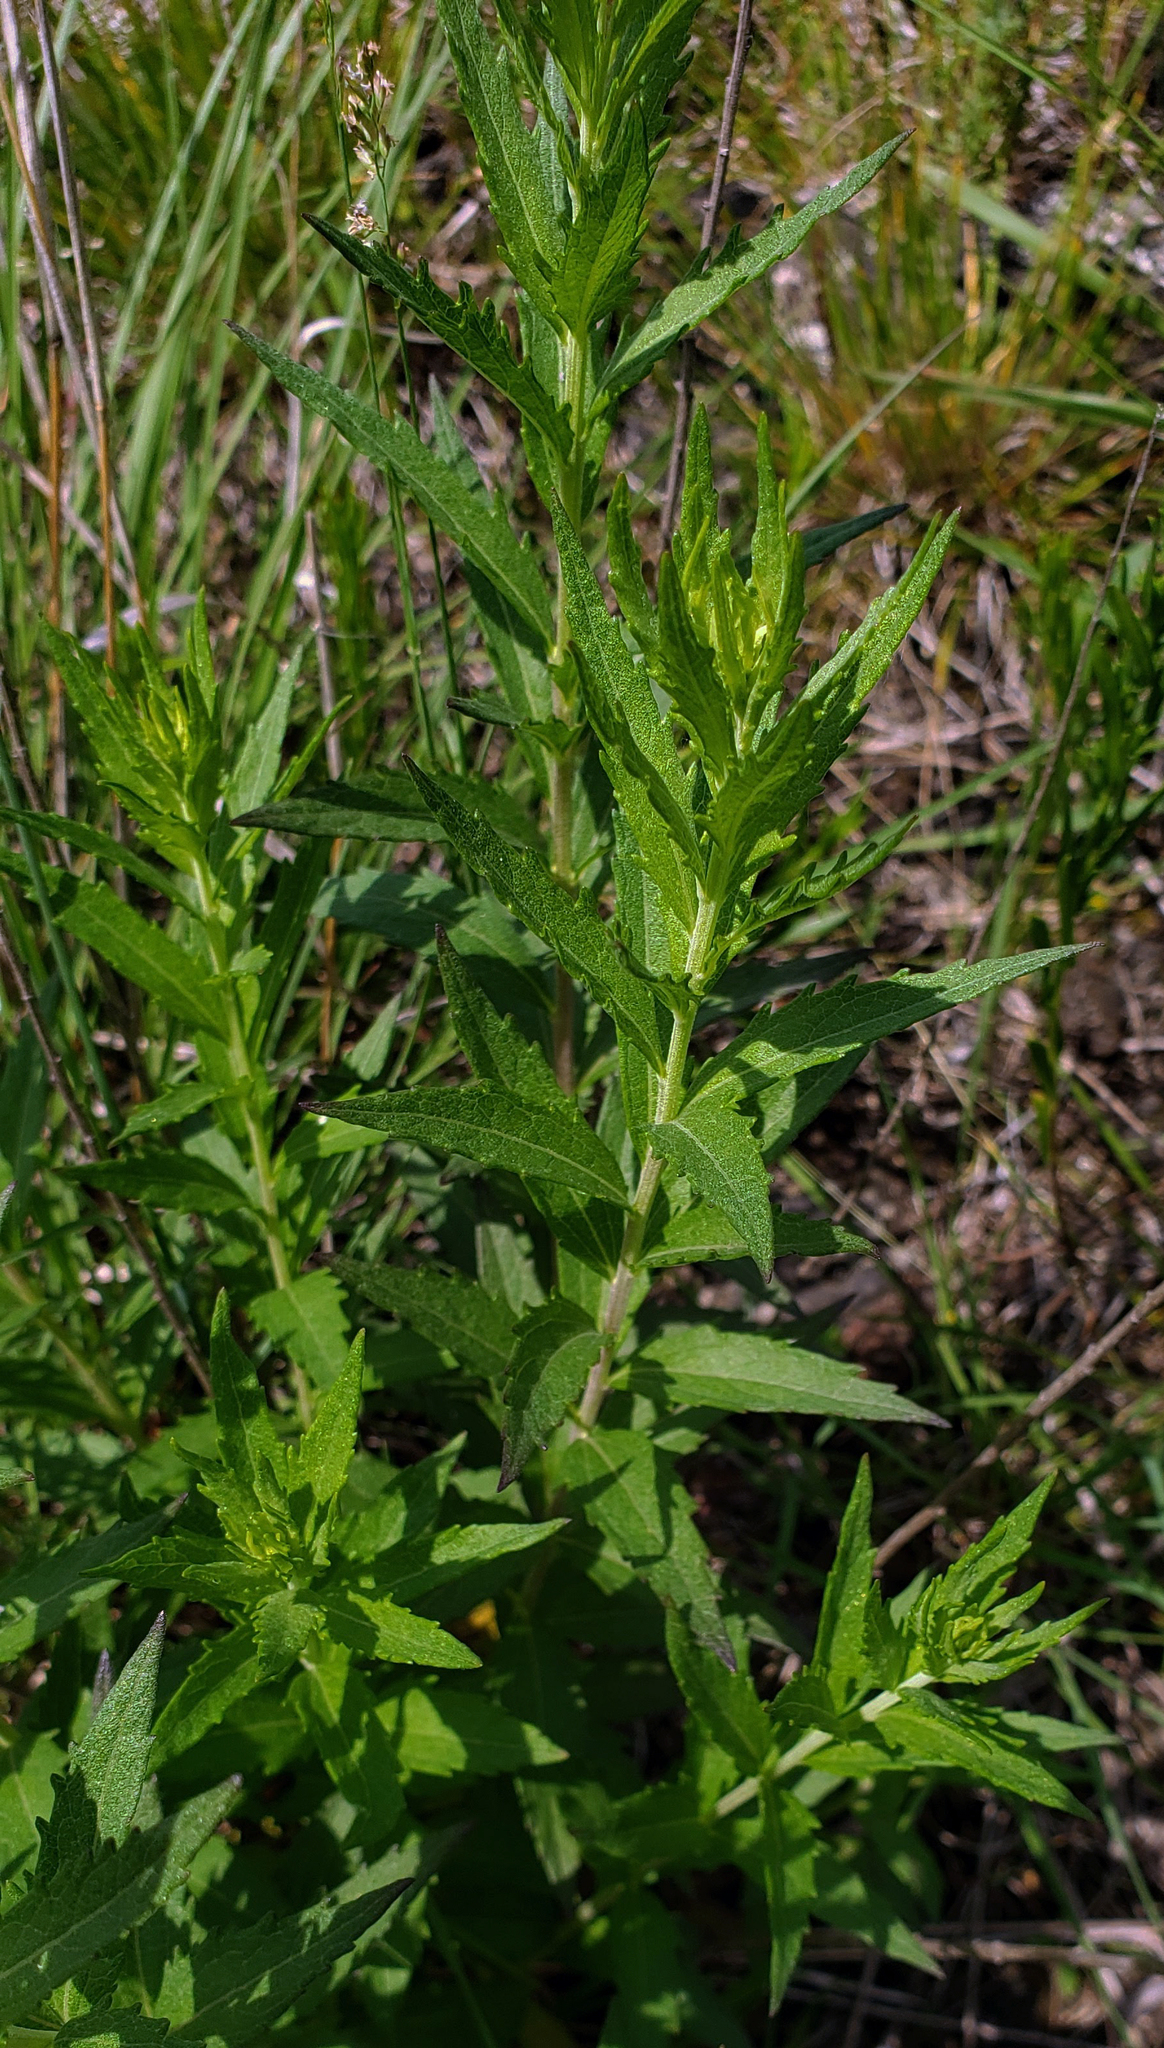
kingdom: Plantae
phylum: Tracheophyta
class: Magnoliopsida
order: Asterales
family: Asteraceae
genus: Brickellia
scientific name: Brickellia eupatorioides
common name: False boneset
